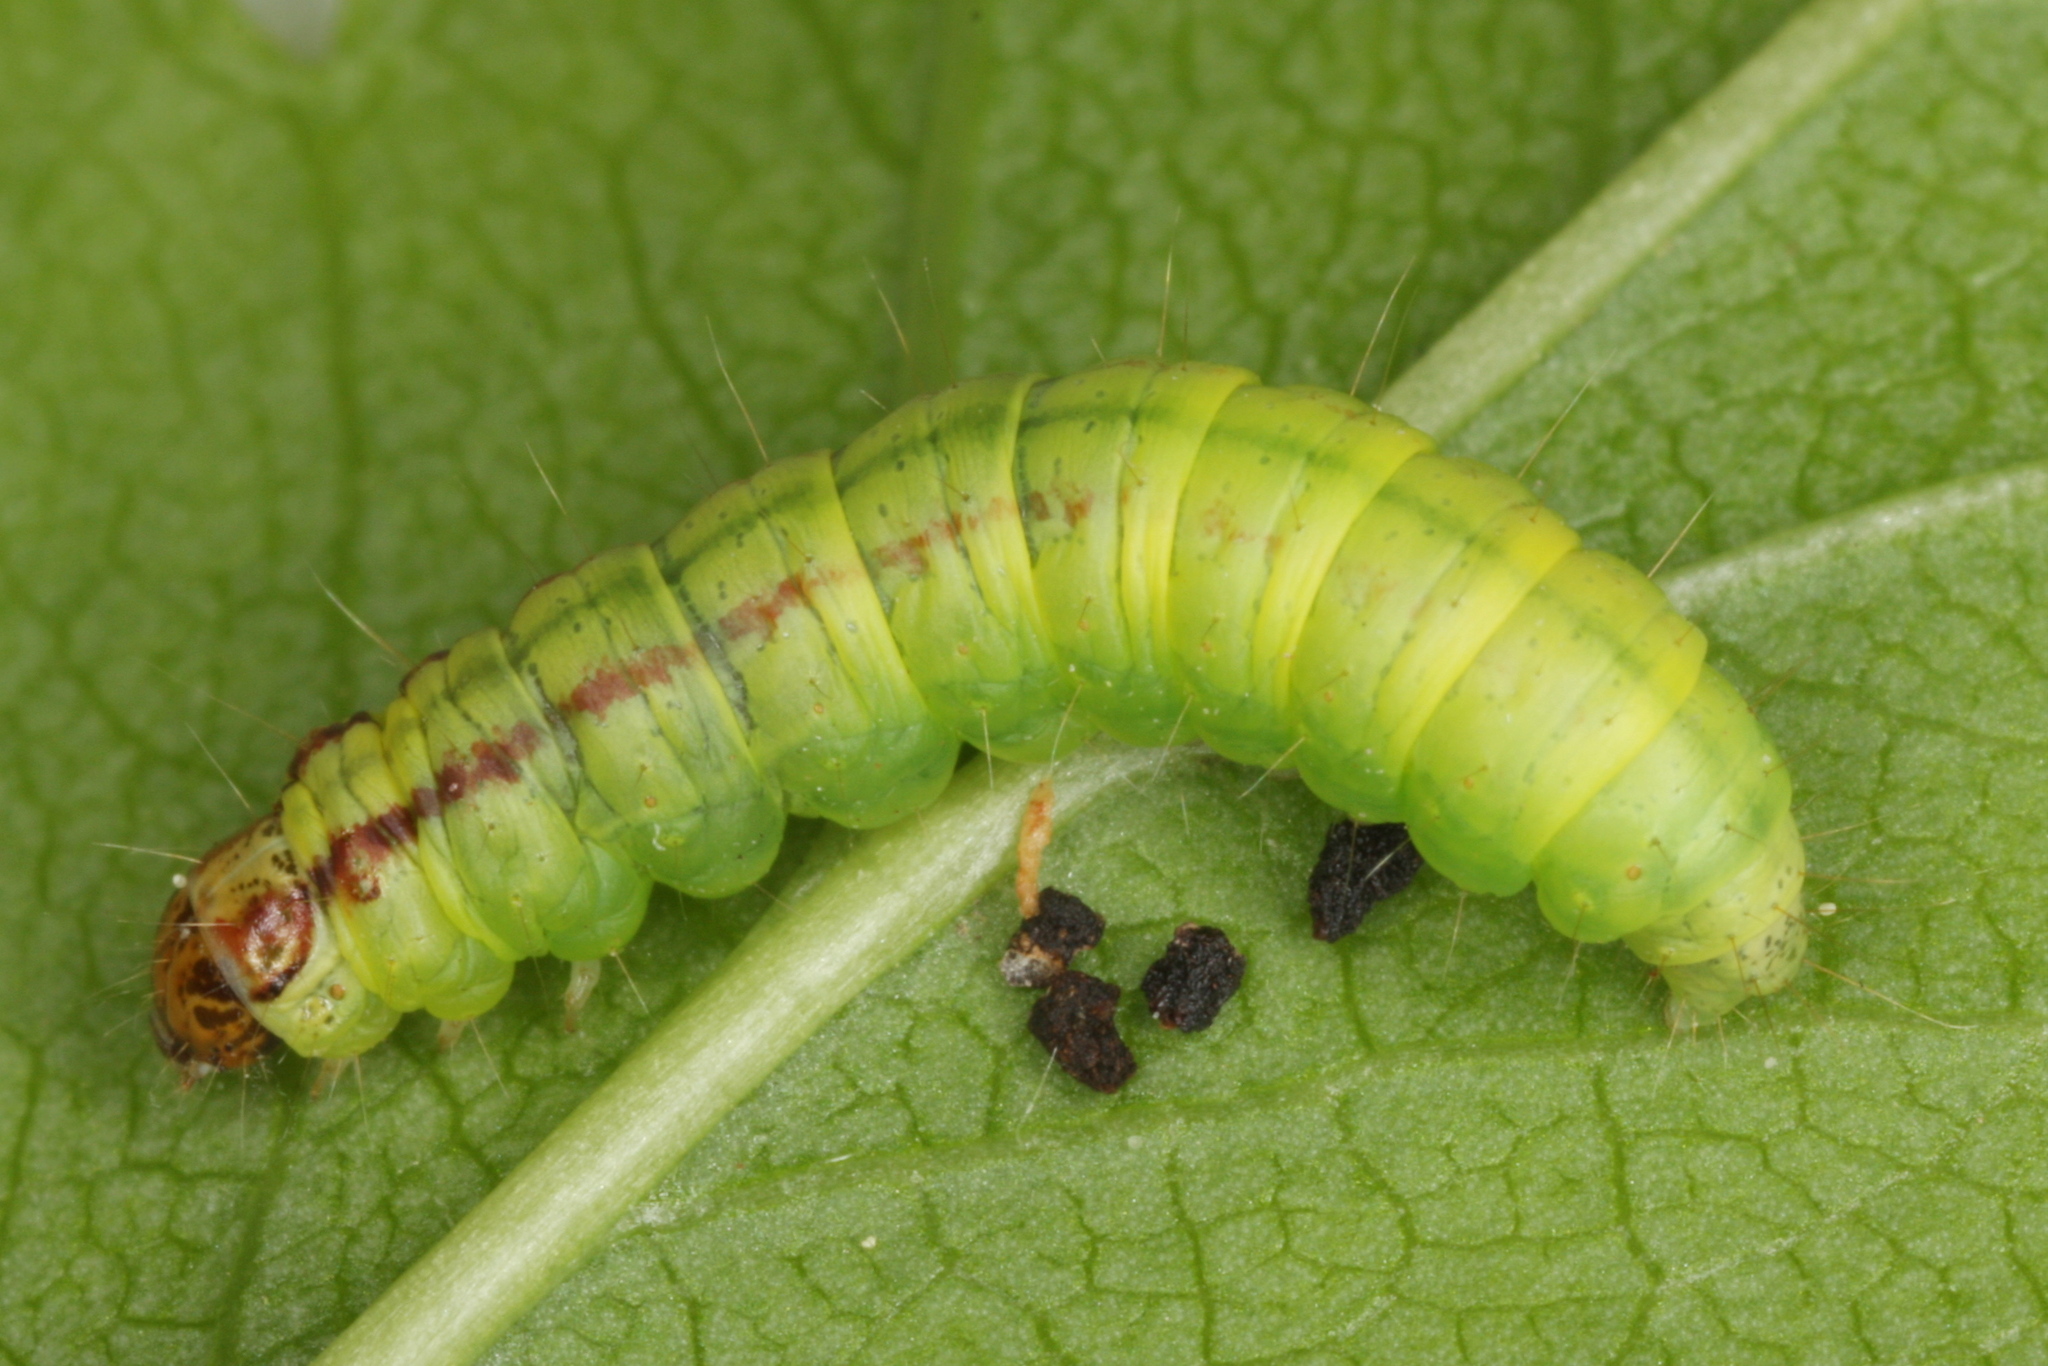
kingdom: Animalia
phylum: Arthropoda
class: Insecta
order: Lepidoptera
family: Pyralidae
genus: Acrobasis
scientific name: Acrobasis advenella
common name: Grey knot-horn
